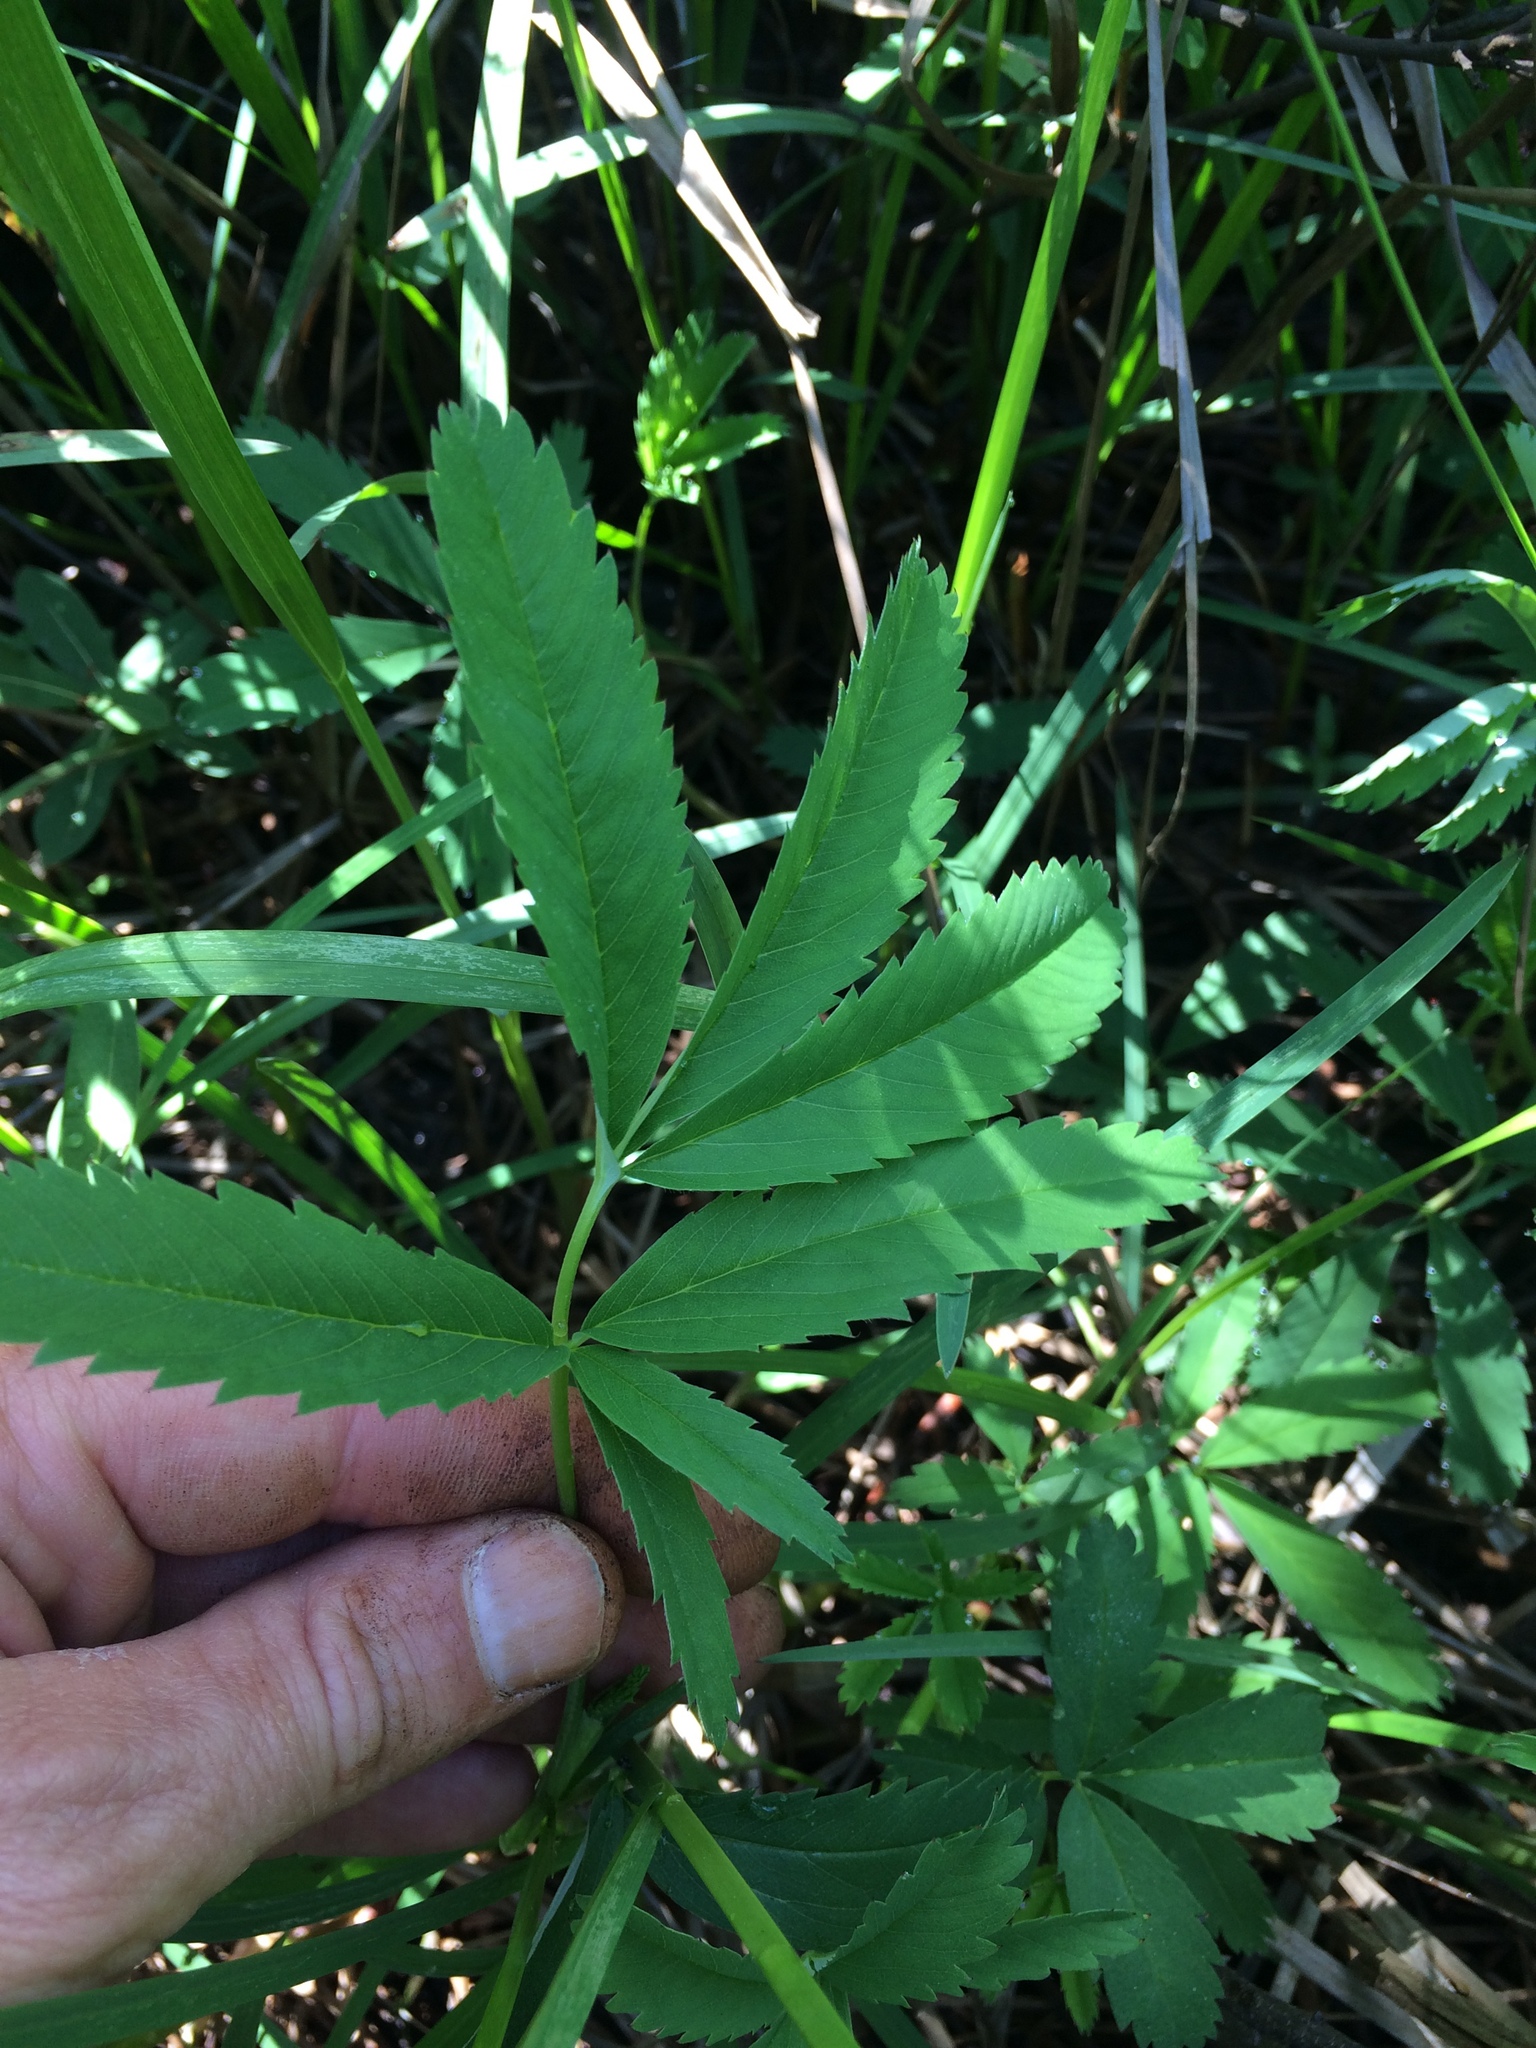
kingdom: Plantae
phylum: Tracheophyta
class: Magnoliopsida
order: Rosales
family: Rosaceae
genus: Comarum
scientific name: Comarum palustre
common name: Marsh cinquefoil
